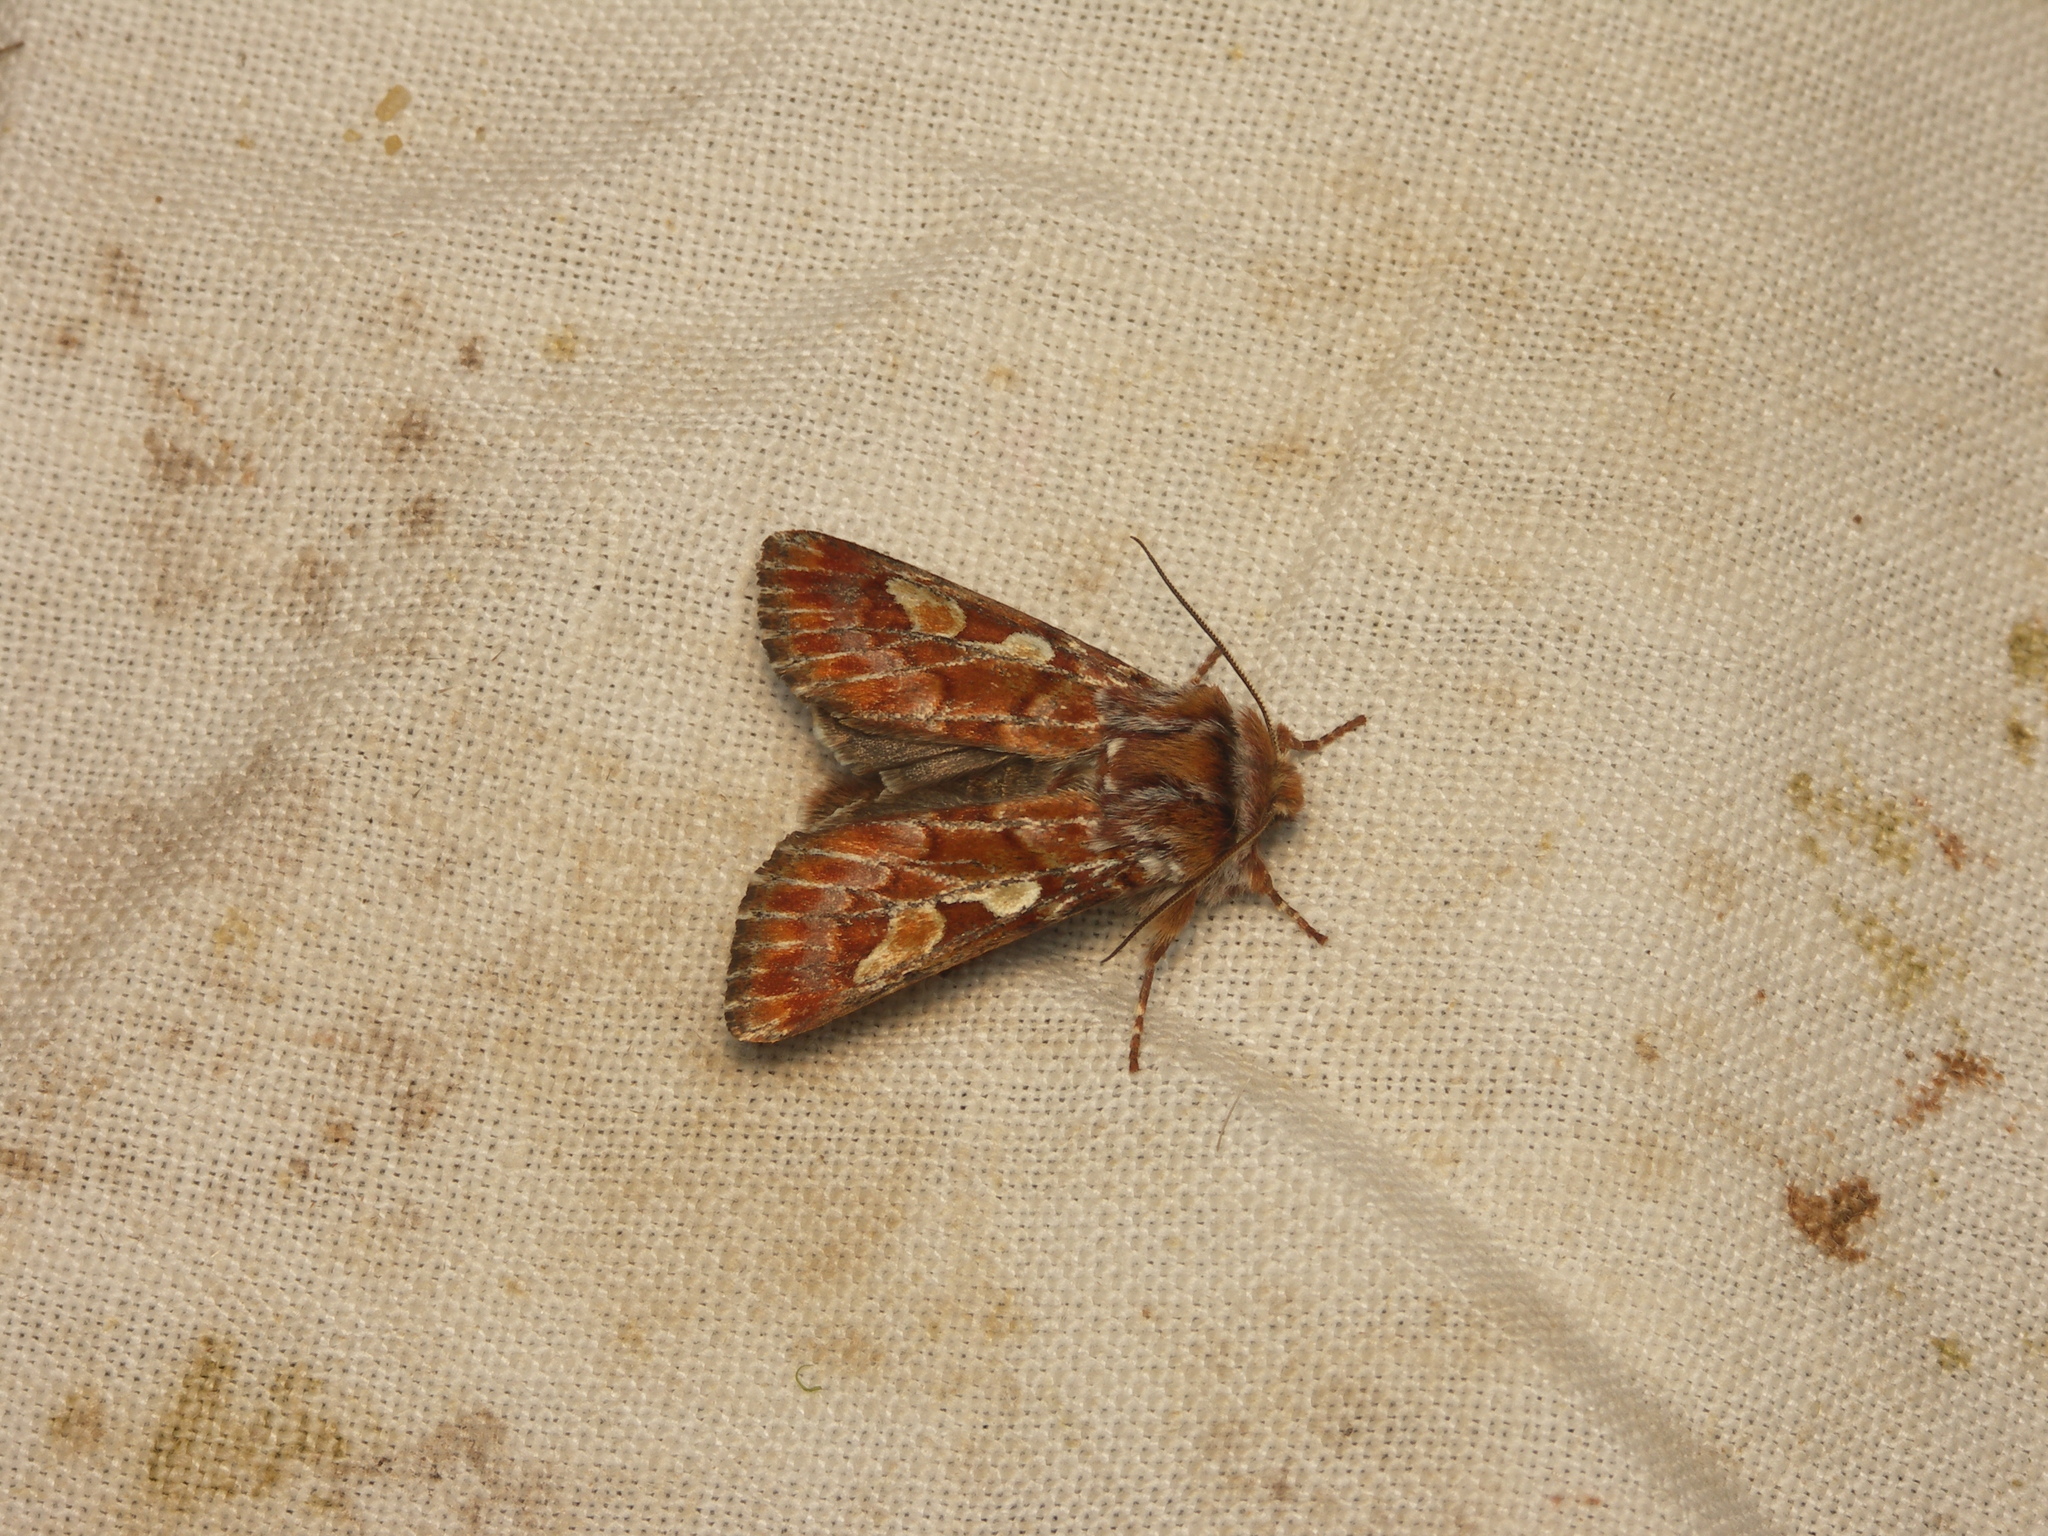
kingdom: Animalia
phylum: Arthropoda
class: Insecta
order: Lepidoptera
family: Noctuidae
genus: Panolis
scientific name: Panolis flammea
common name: Pine beauty
